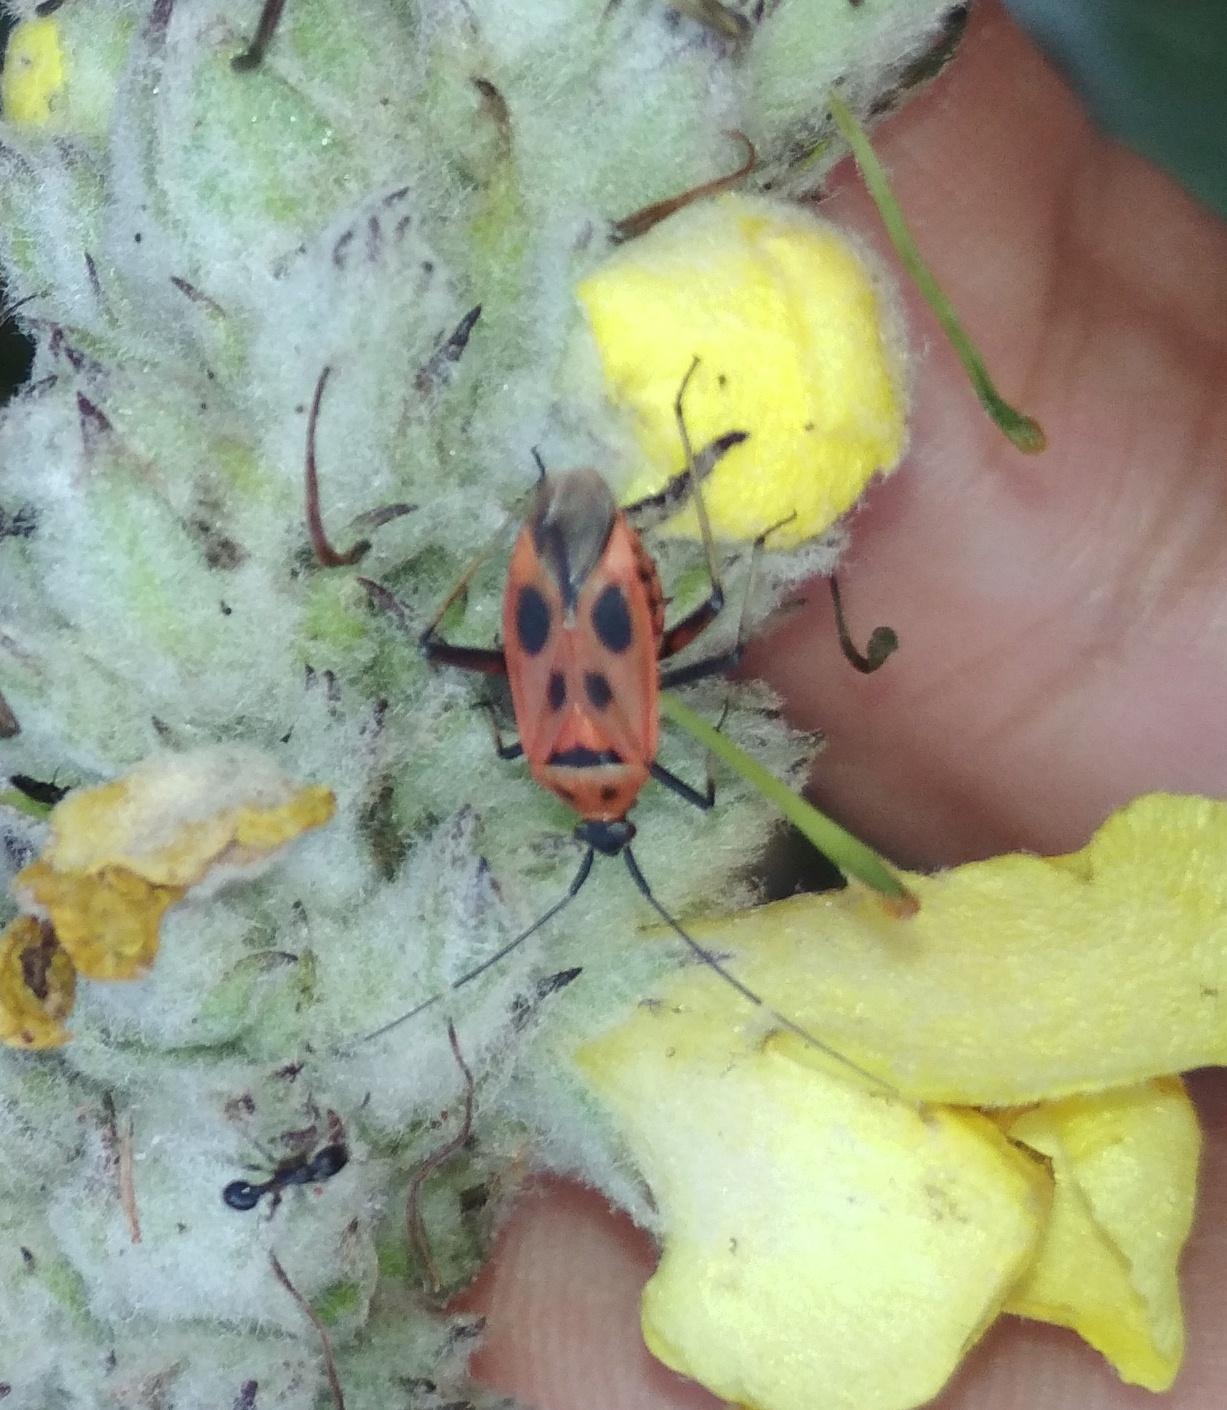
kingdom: Animalia
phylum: Arthropoda
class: Insecta
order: Hemiptera
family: Miridae
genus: Calocoris
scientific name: Calocoris nemoralis
